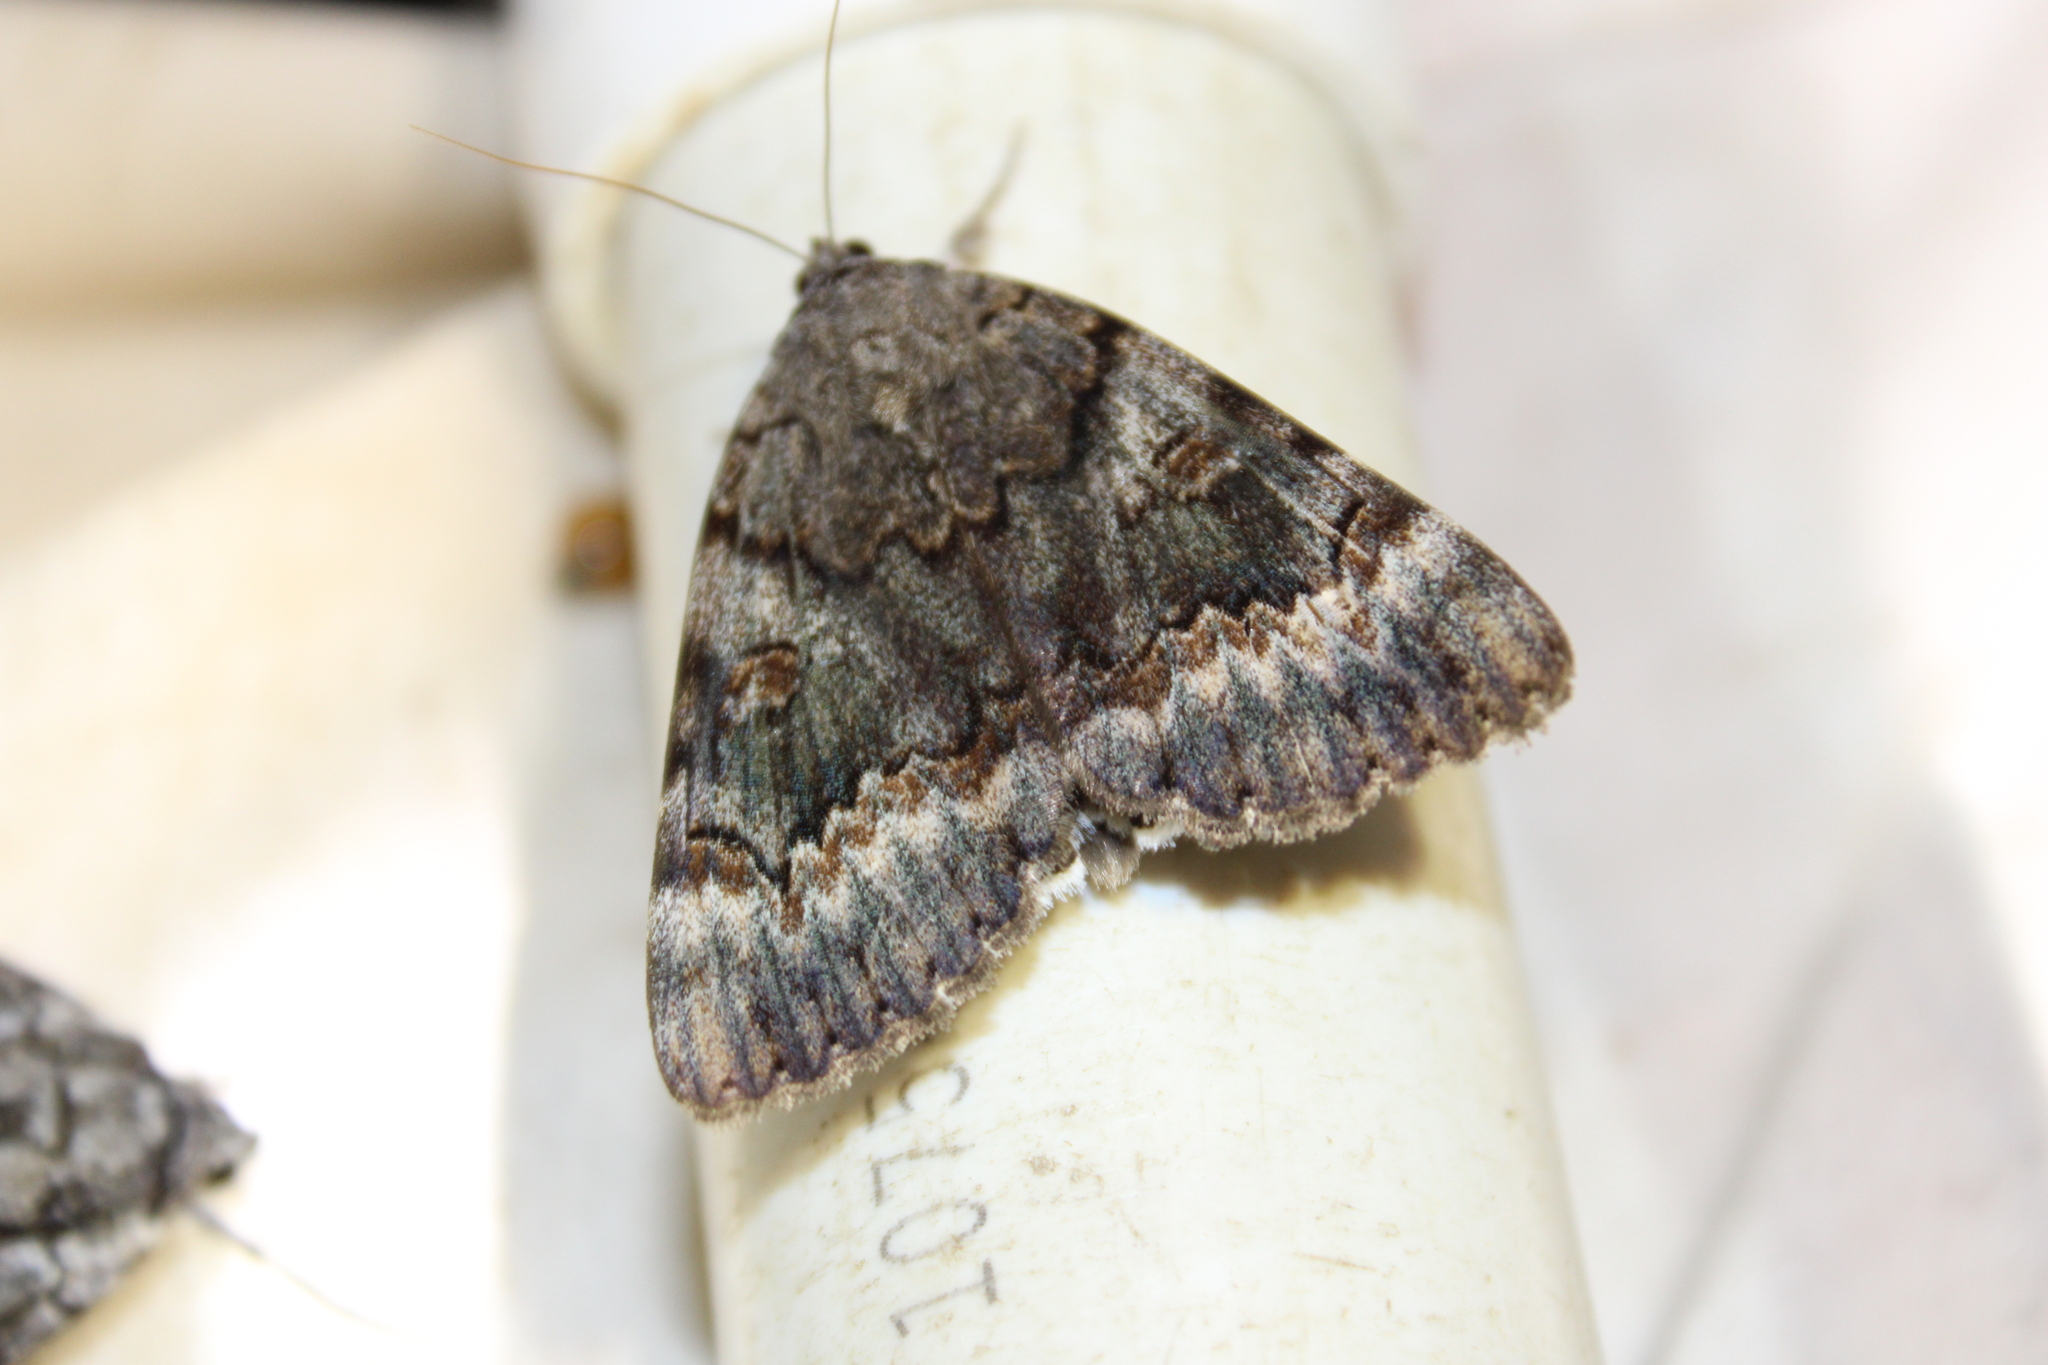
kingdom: Animalia
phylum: Arthropoda
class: Insecta
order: Lepidoptera
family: Erebidae
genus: Catocala
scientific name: Catocala epione
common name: Epione underwing
